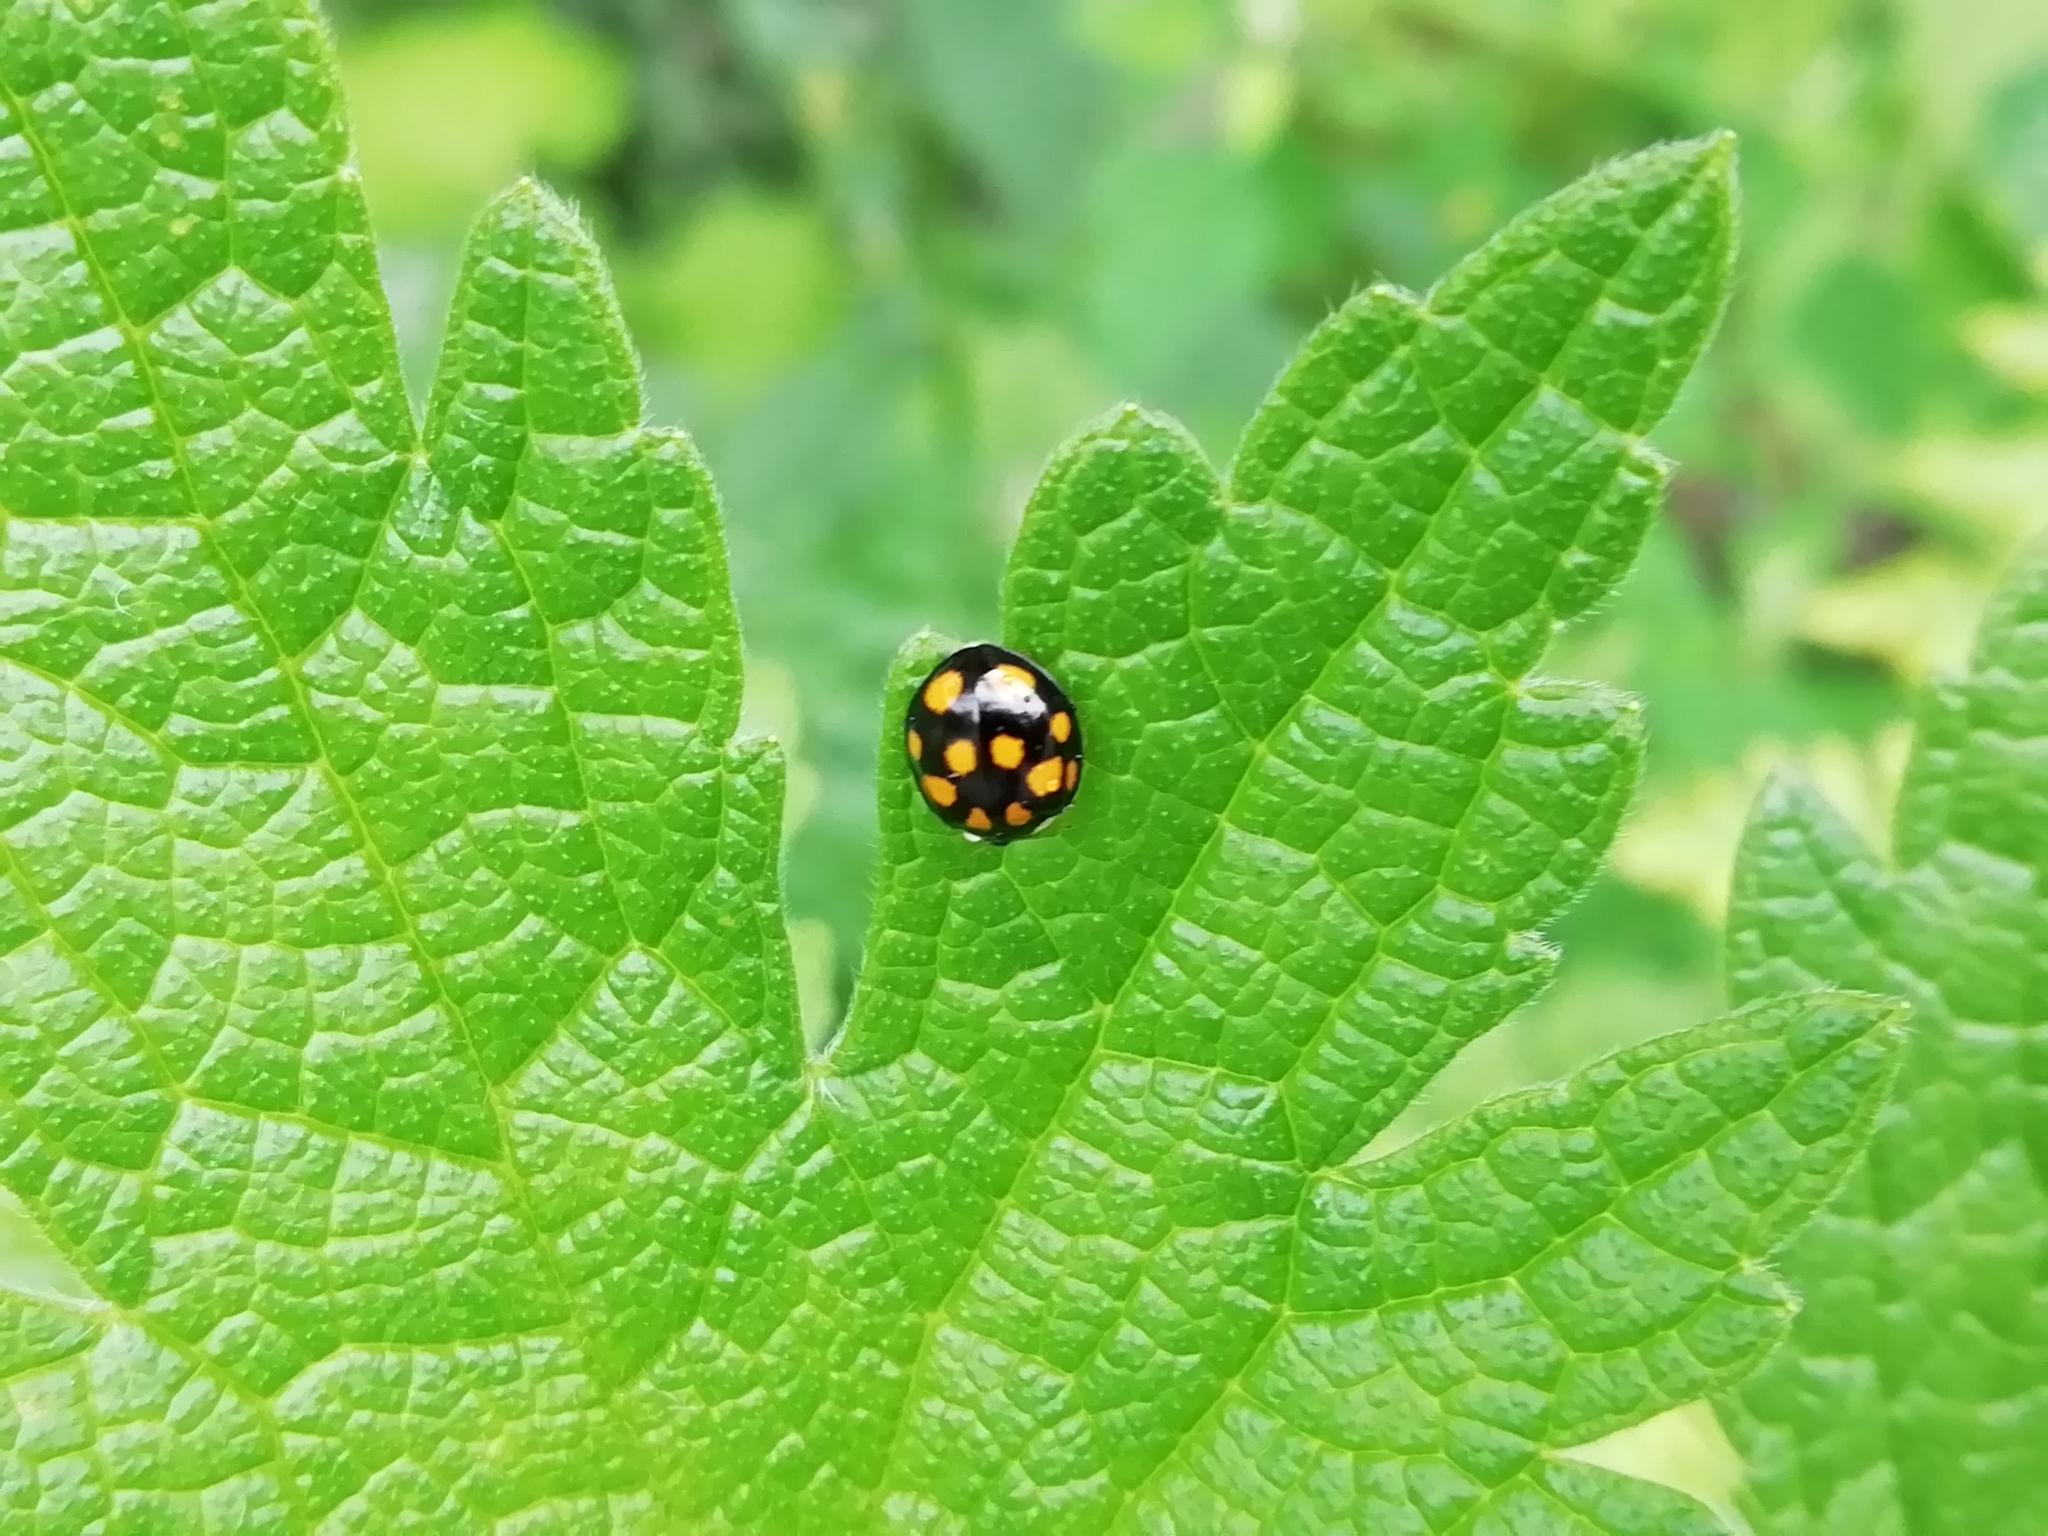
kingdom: Animalia
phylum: Arthropoda
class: Insecta
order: Coleoptera
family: Coccinellidae
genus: Harmonia
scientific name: Harmonia axyridis
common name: Harlequin ladybird
